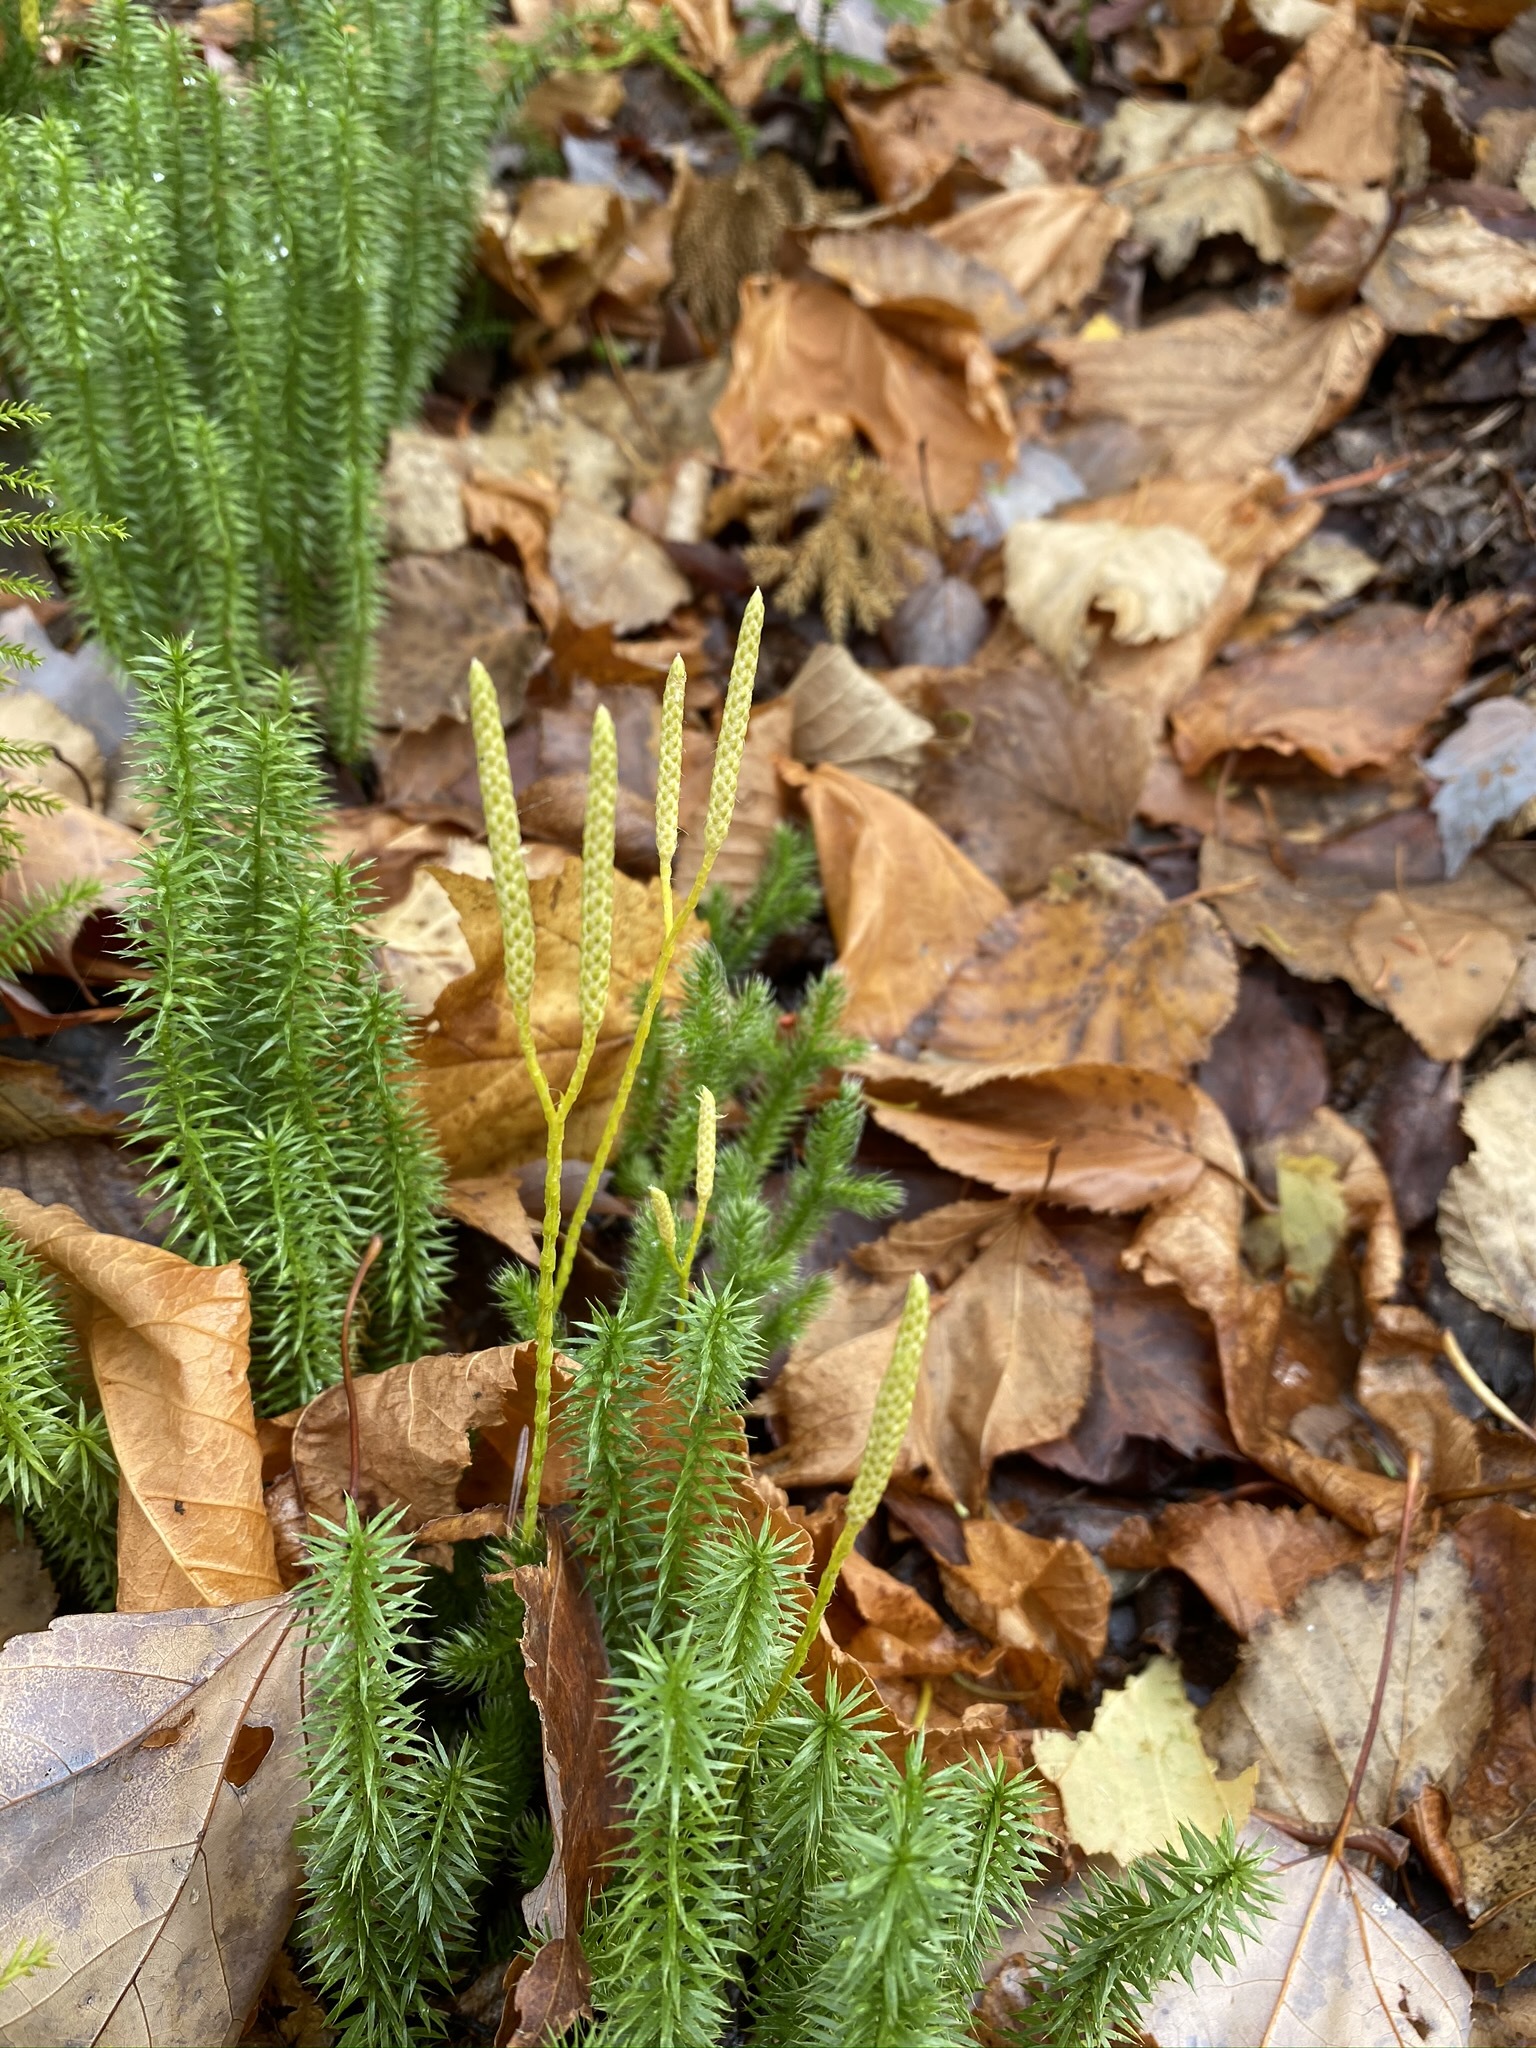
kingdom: Plantae
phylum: Tracheophyta
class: Lycopodiopsida
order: Lycopodiales
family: Lycopodiaceae
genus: Lycopodium
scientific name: Lycopodium clavatum
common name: Stag's-horn clubmoss
